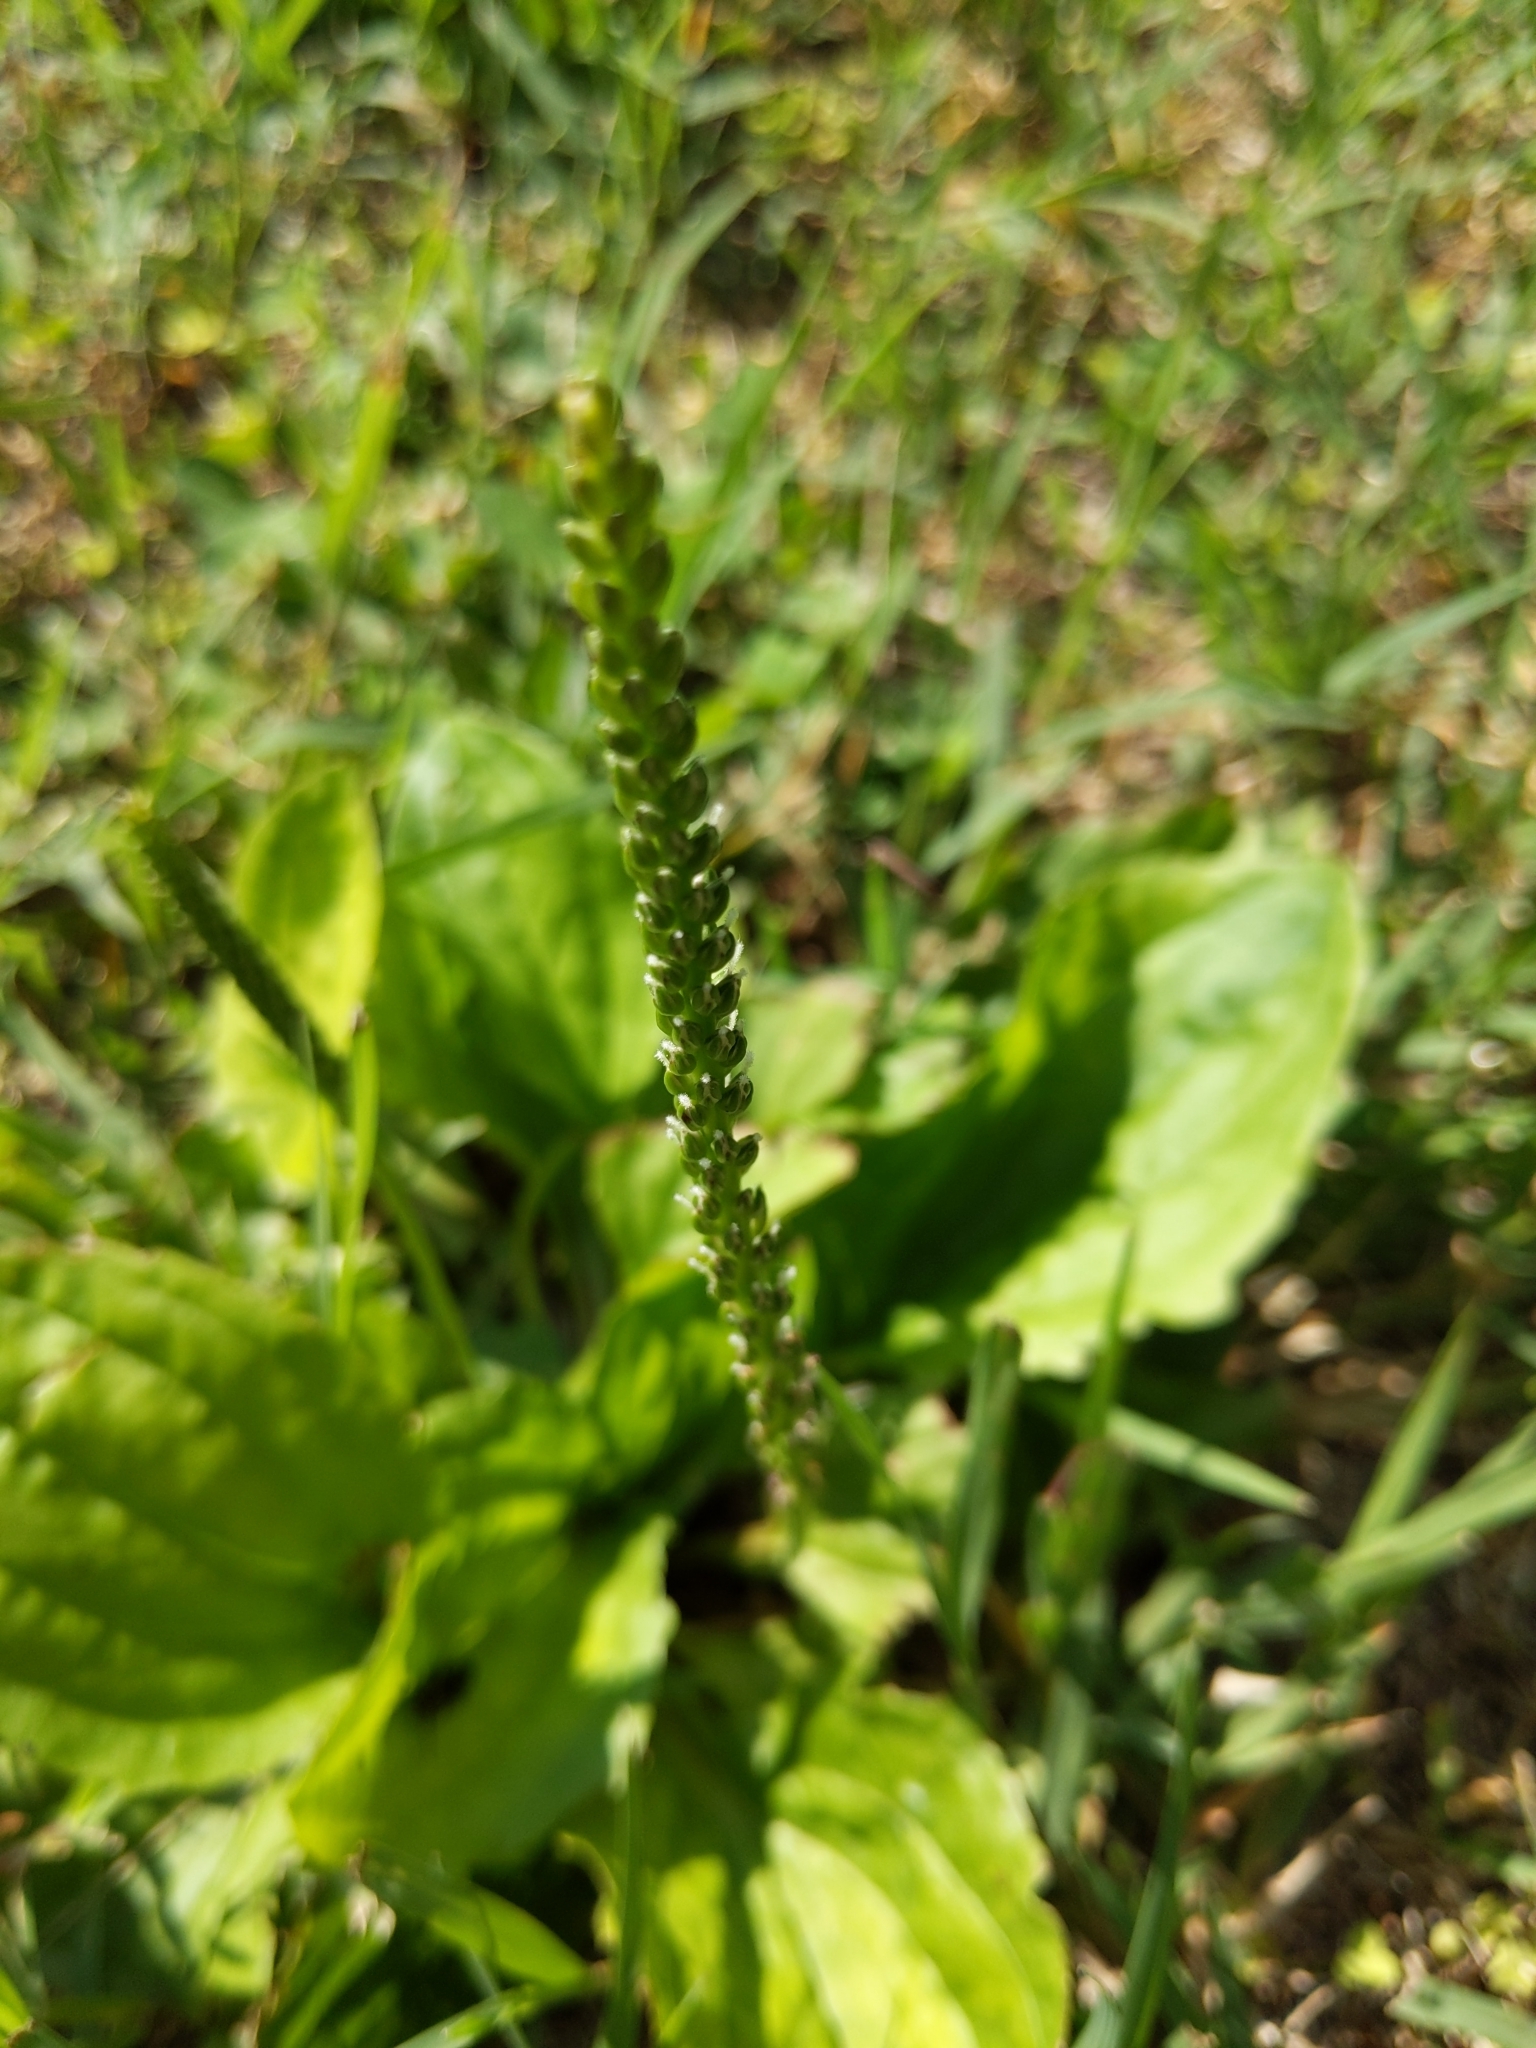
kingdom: Plantae
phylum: Tracheophyta
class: Magnoliopsida
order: Lamiales
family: Plantaginaceae
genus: Plantago
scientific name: Plantago major
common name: Common plantain
